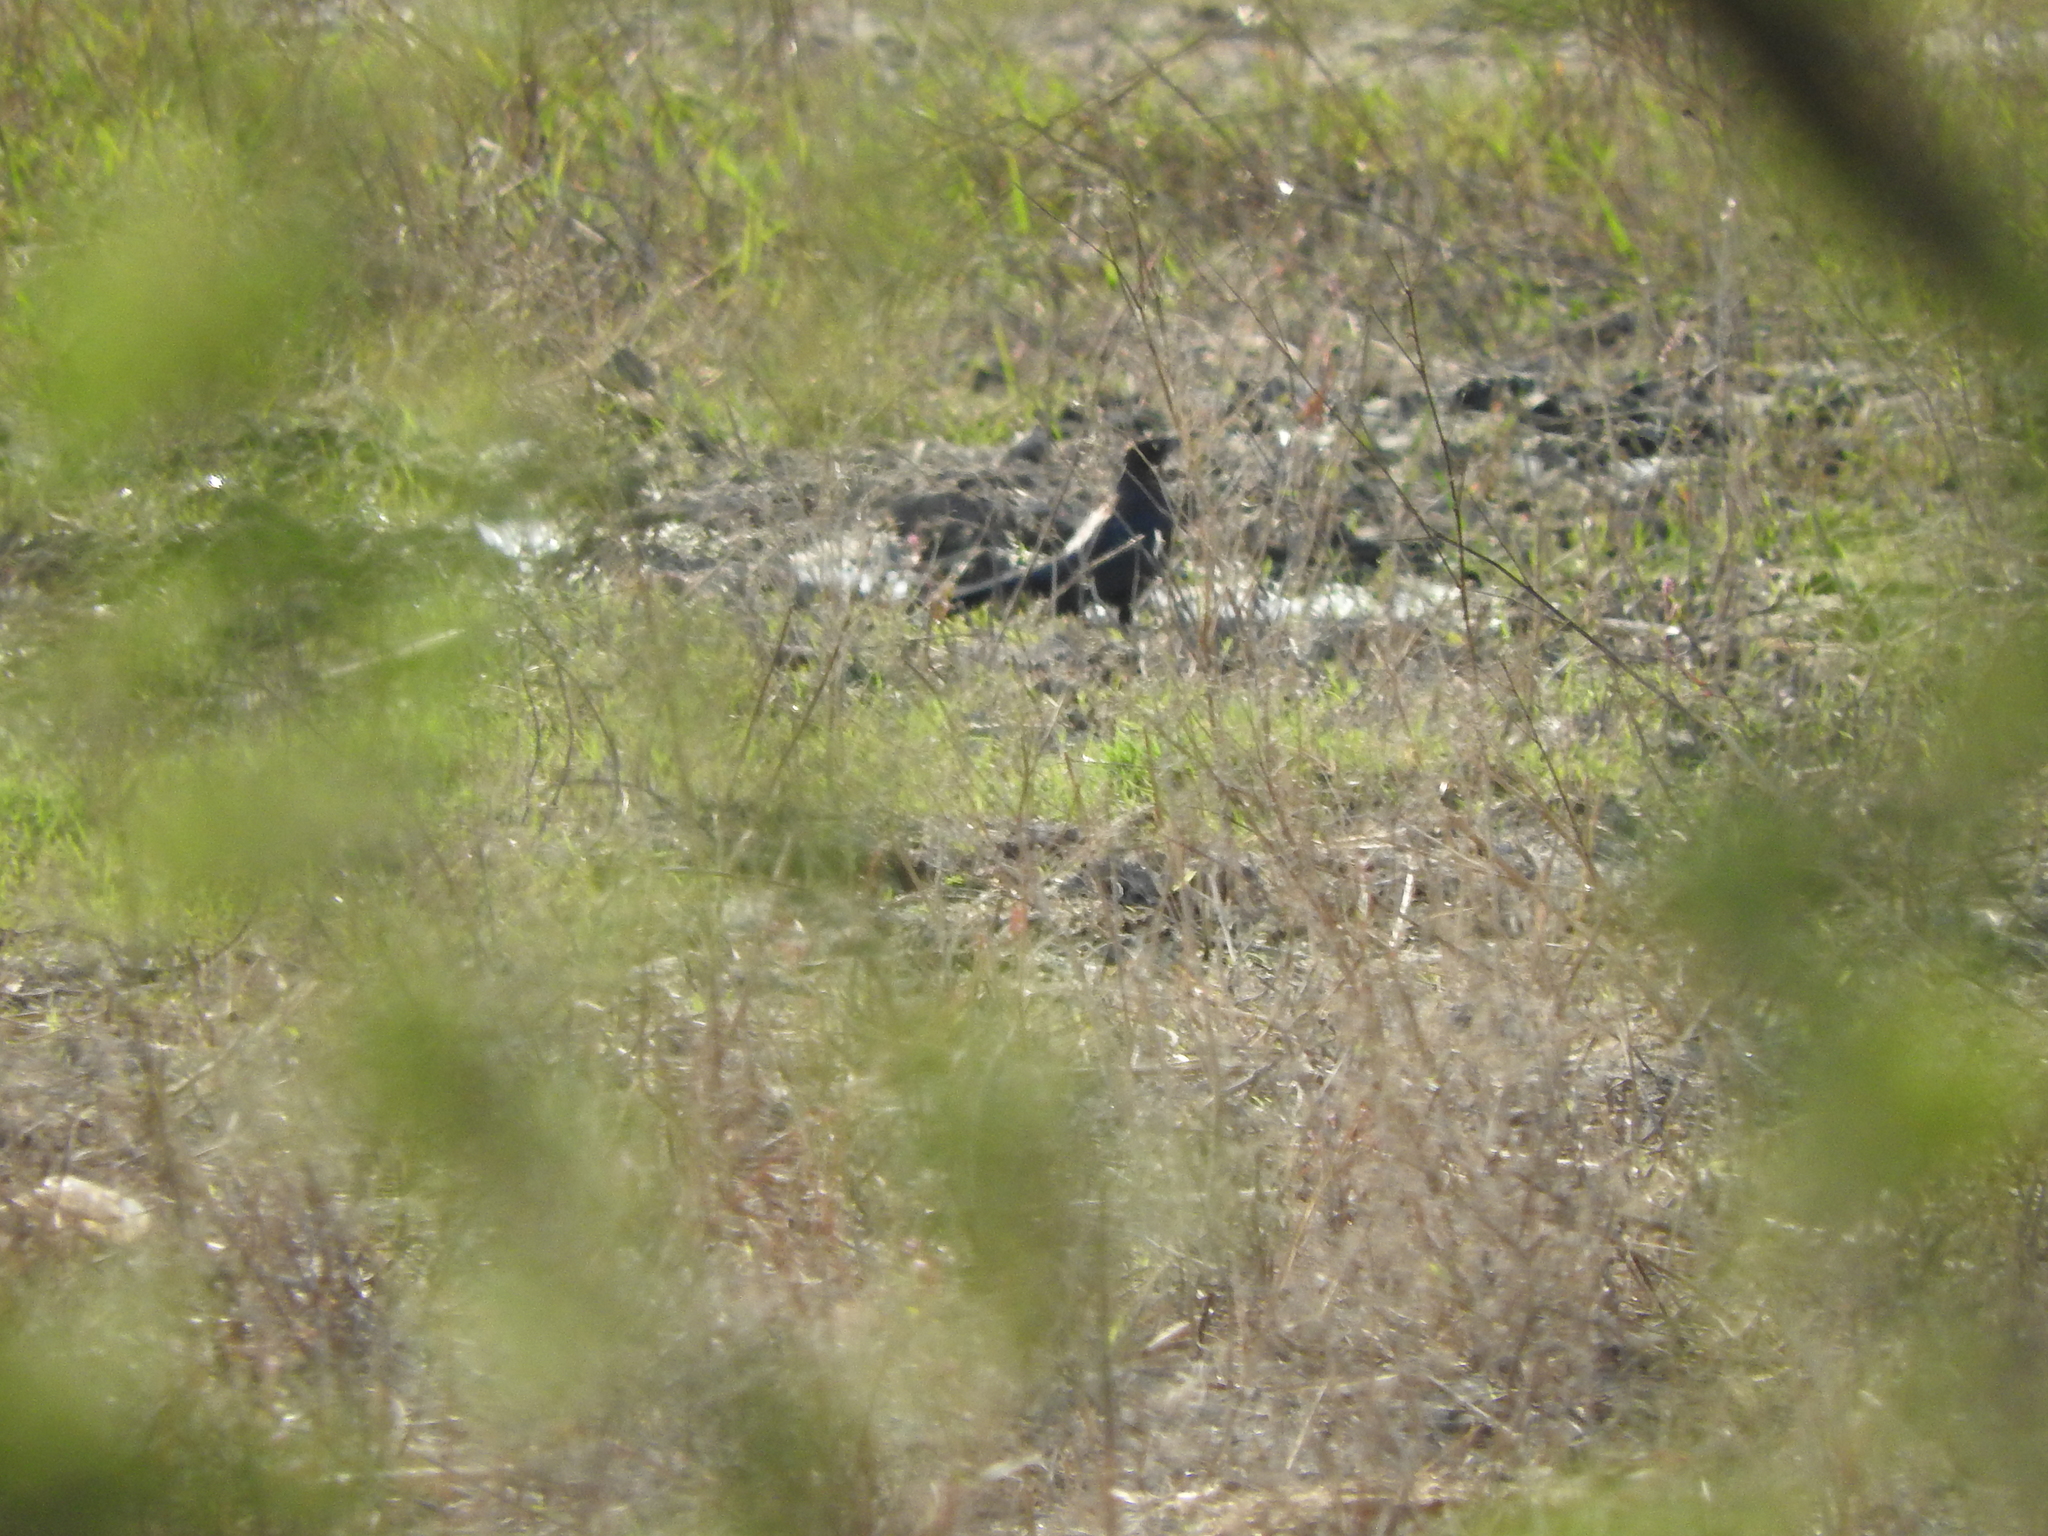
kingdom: Animalia
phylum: Chordata
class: Aves
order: Passeriformes
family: Icteridae
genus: Quiscalus
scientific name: Quiscalus mexicanus
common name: Great-tailed grackle
